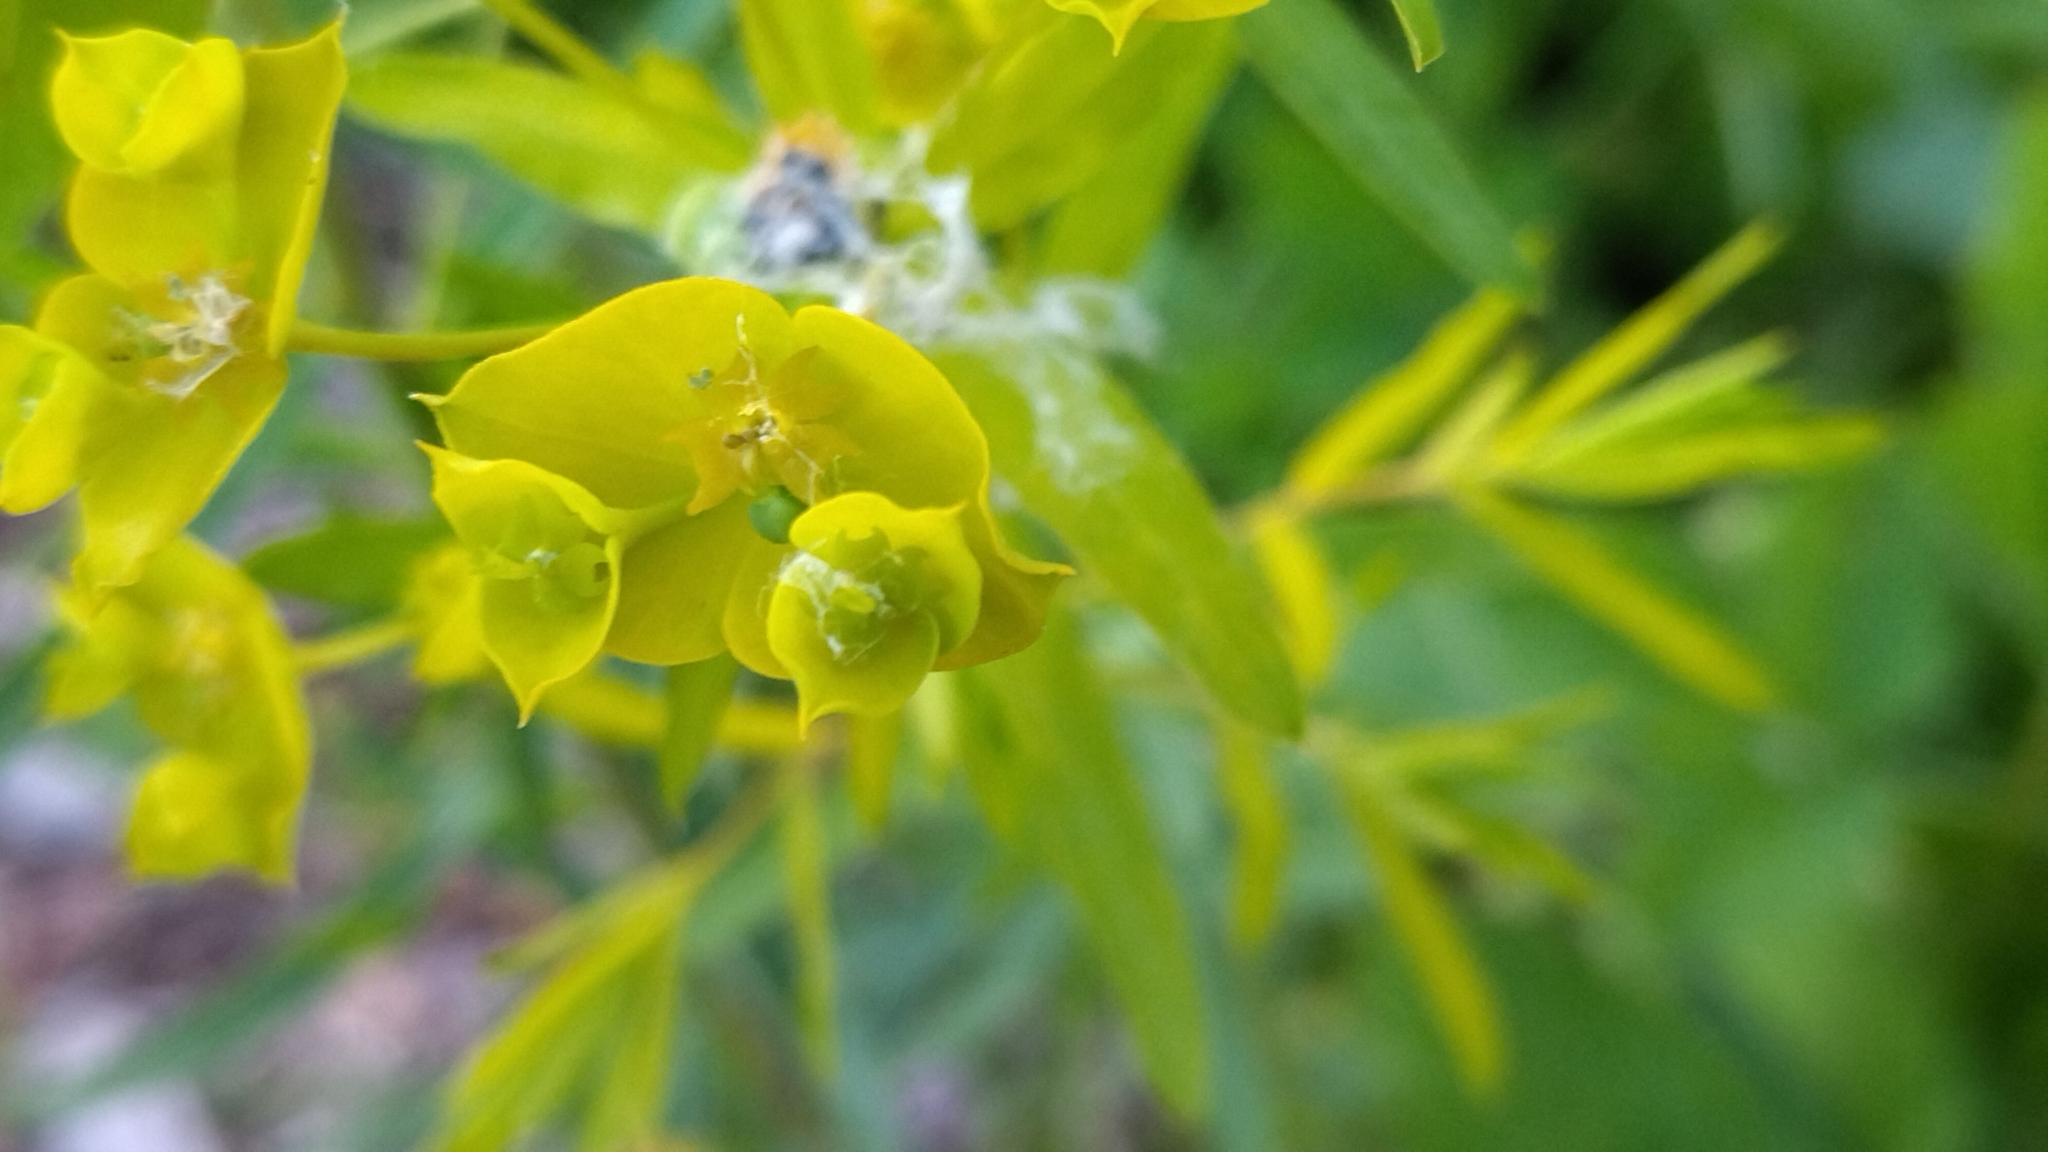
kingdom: Plantae
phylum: Tracheophyta
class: Magnoliopsida
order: Malpighiales
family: Euphorbiaceae
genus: Euphorbia
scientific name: Euphorbia virgata
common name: Leafy spurge
